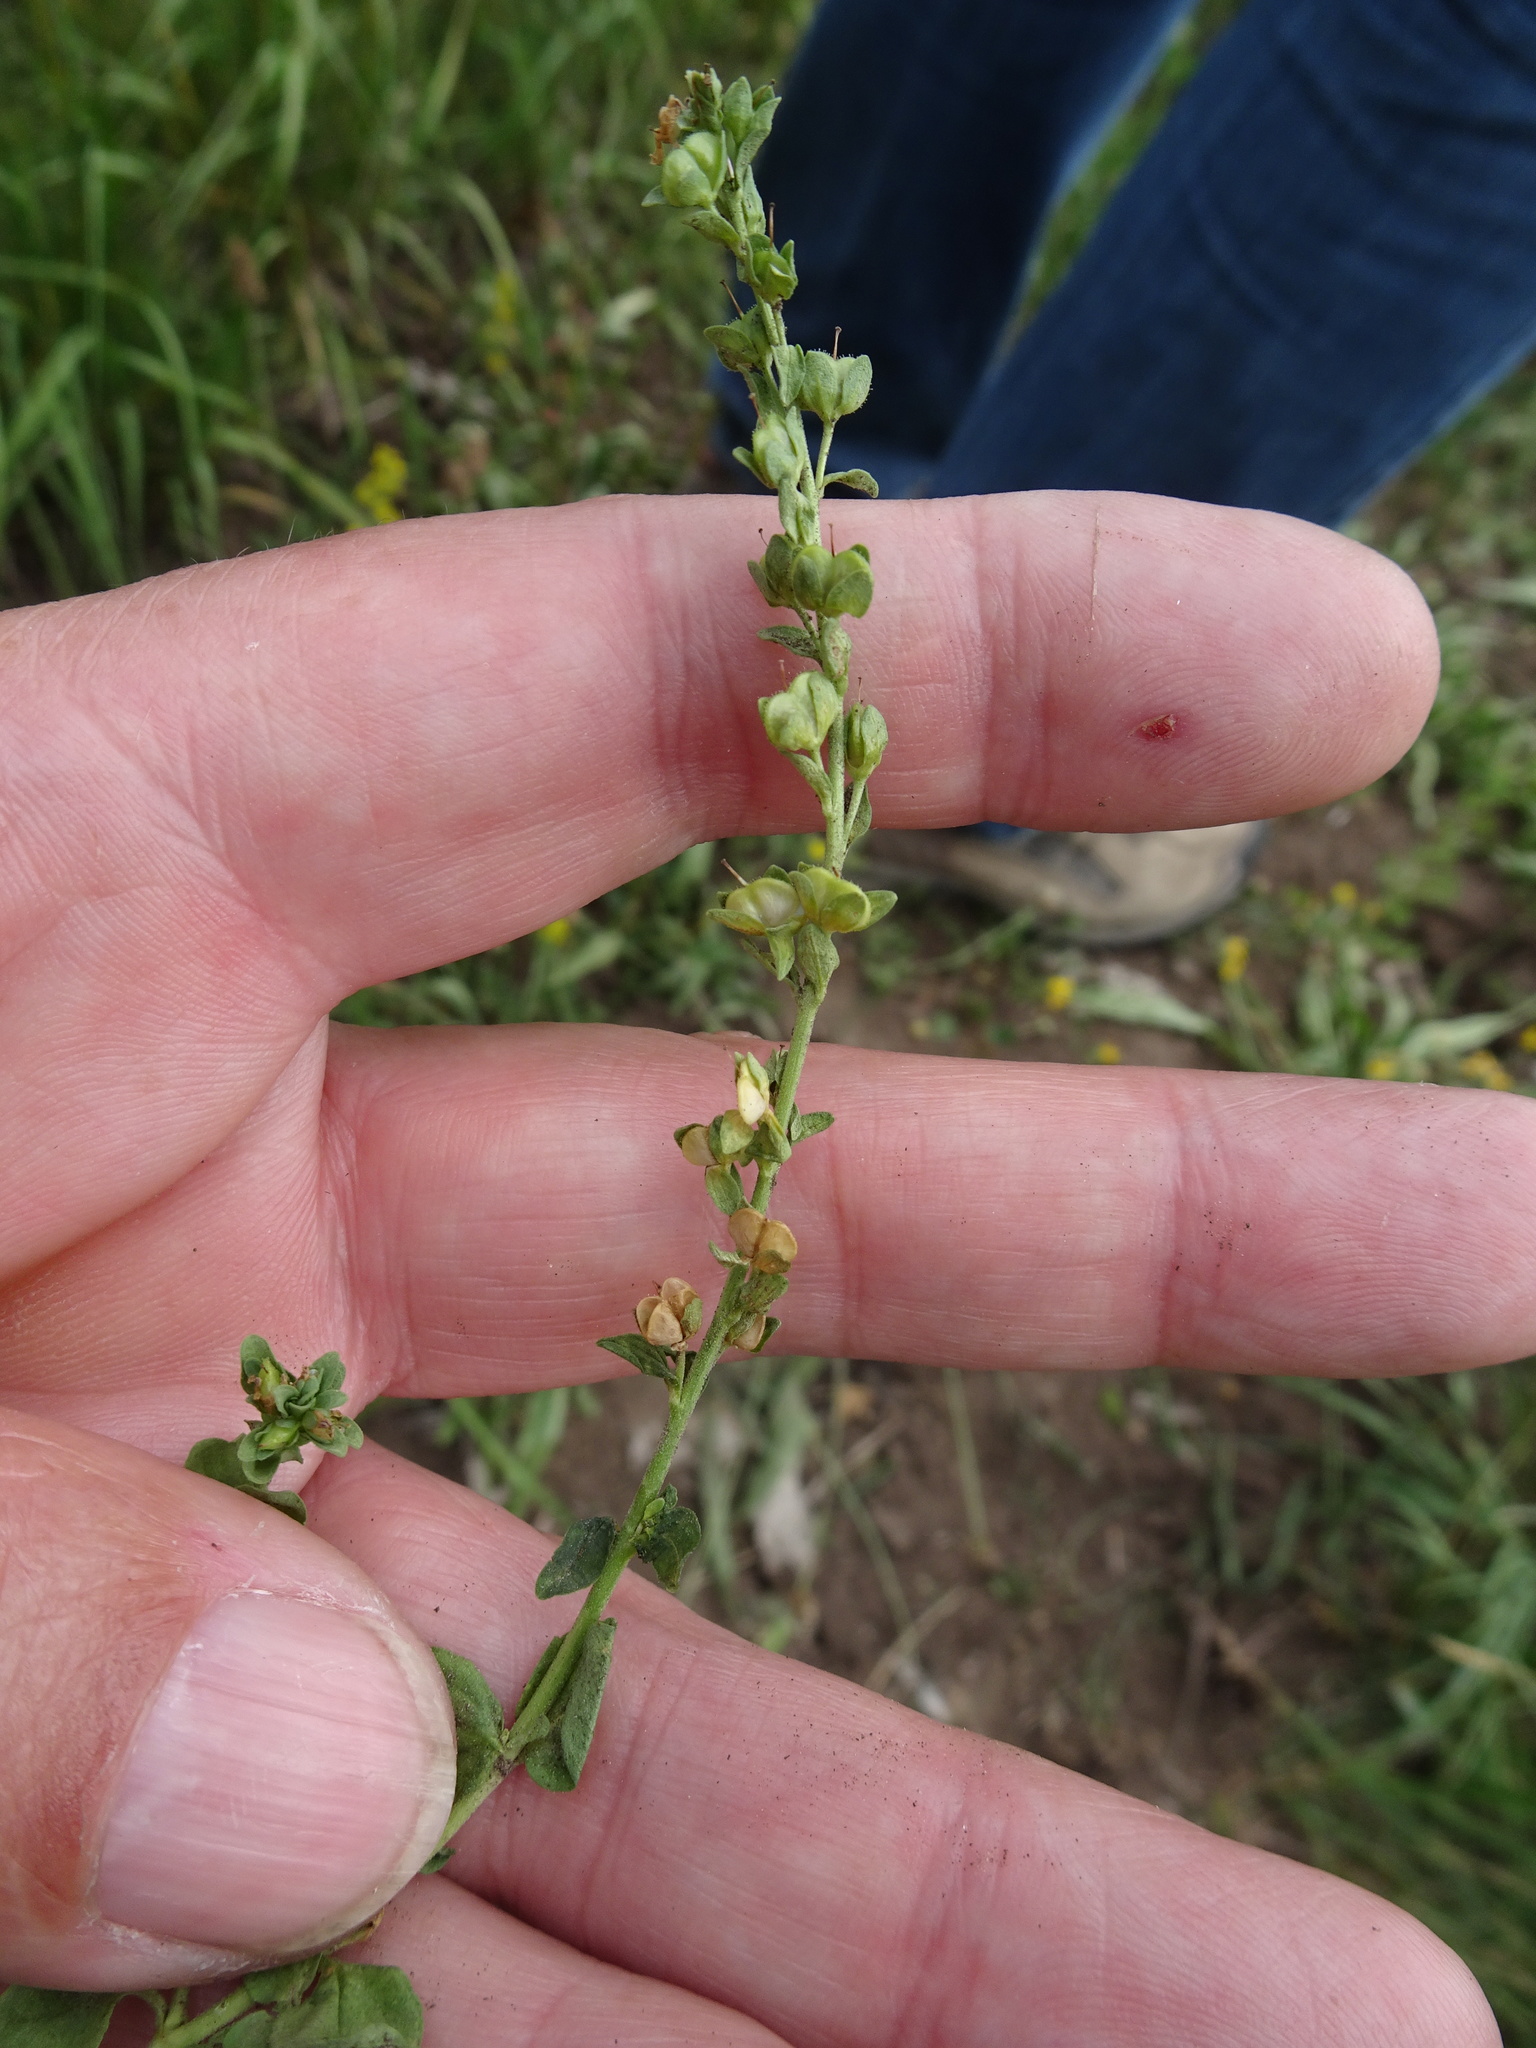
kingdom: Plantae
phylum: Tracheophyta
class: Magnoliopsida
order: Lamiales
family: Plantaginaceae
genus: Veronica
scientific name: Veronica serpyllifolia
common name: Thyme-leaved speedwell
